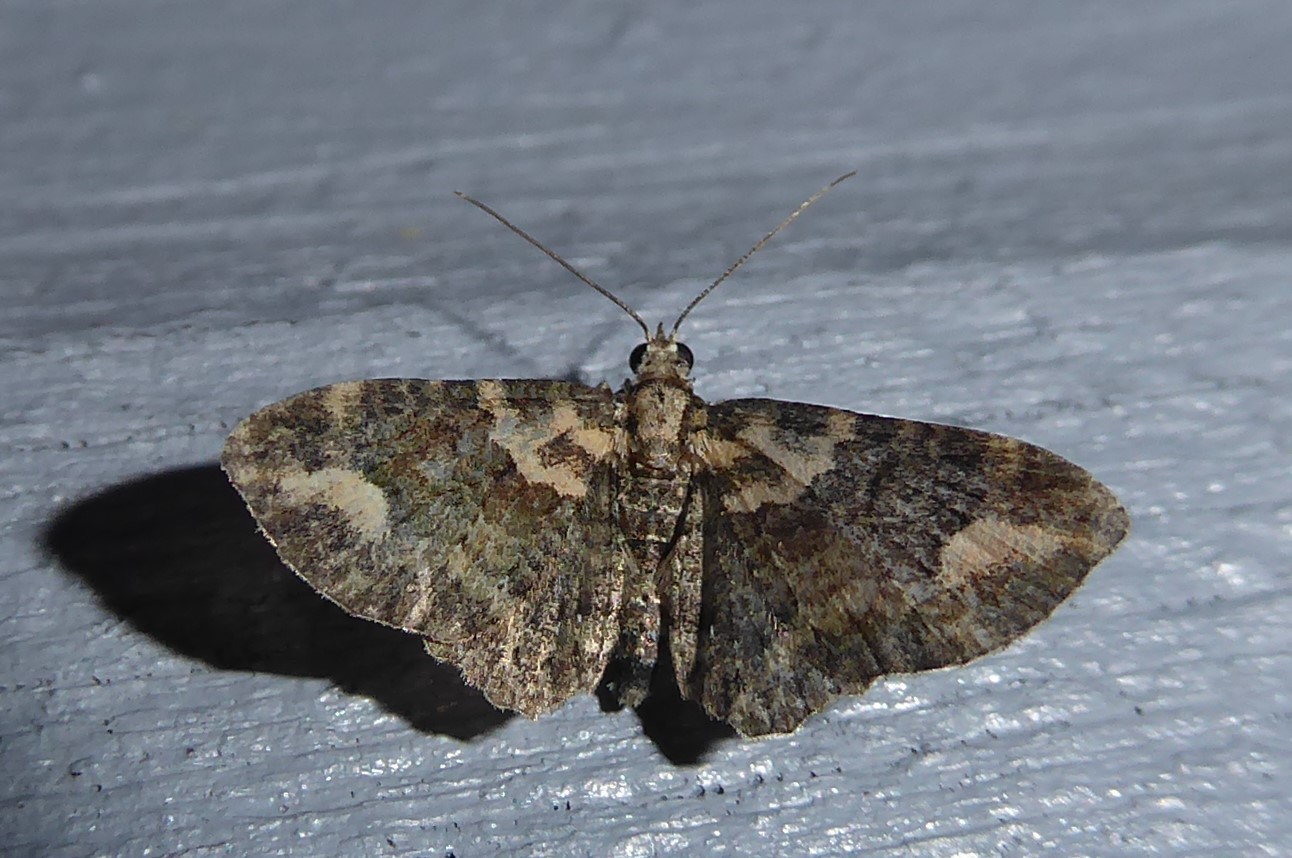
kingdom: Animalia
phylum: Arthropoda
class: Insecta
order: Lepidoptera
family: Geometridae
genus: Pasiphilodes
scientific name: Pasiphilodes testulata
